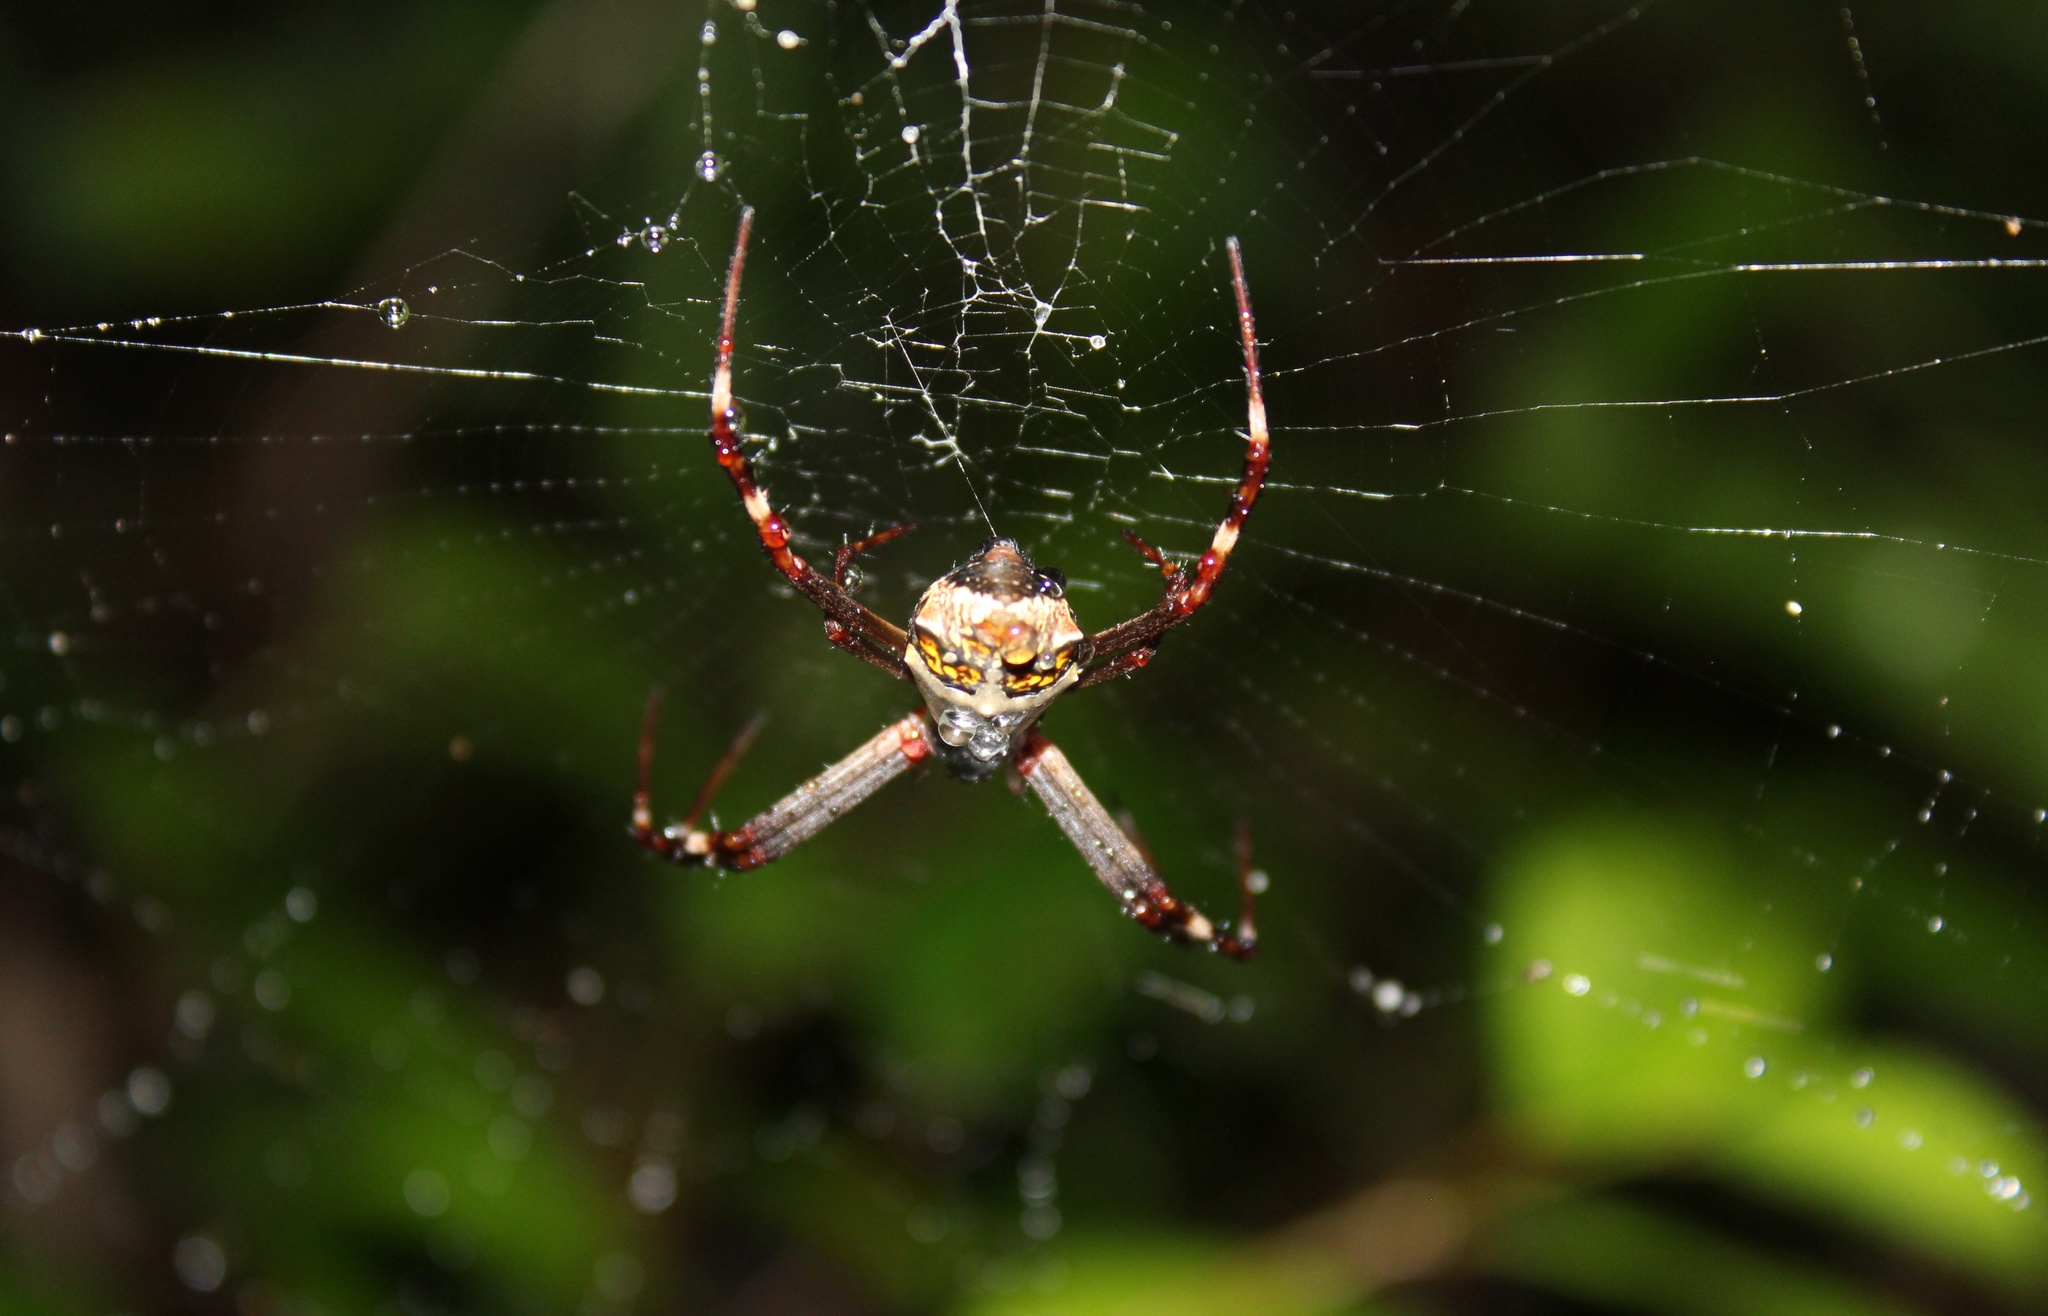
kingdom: Animalia
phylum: Arthropoda
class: Arachnida
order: Araneae
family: Araneidae
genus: Argiope
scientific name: Argiope argentata
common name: Orb weavers
